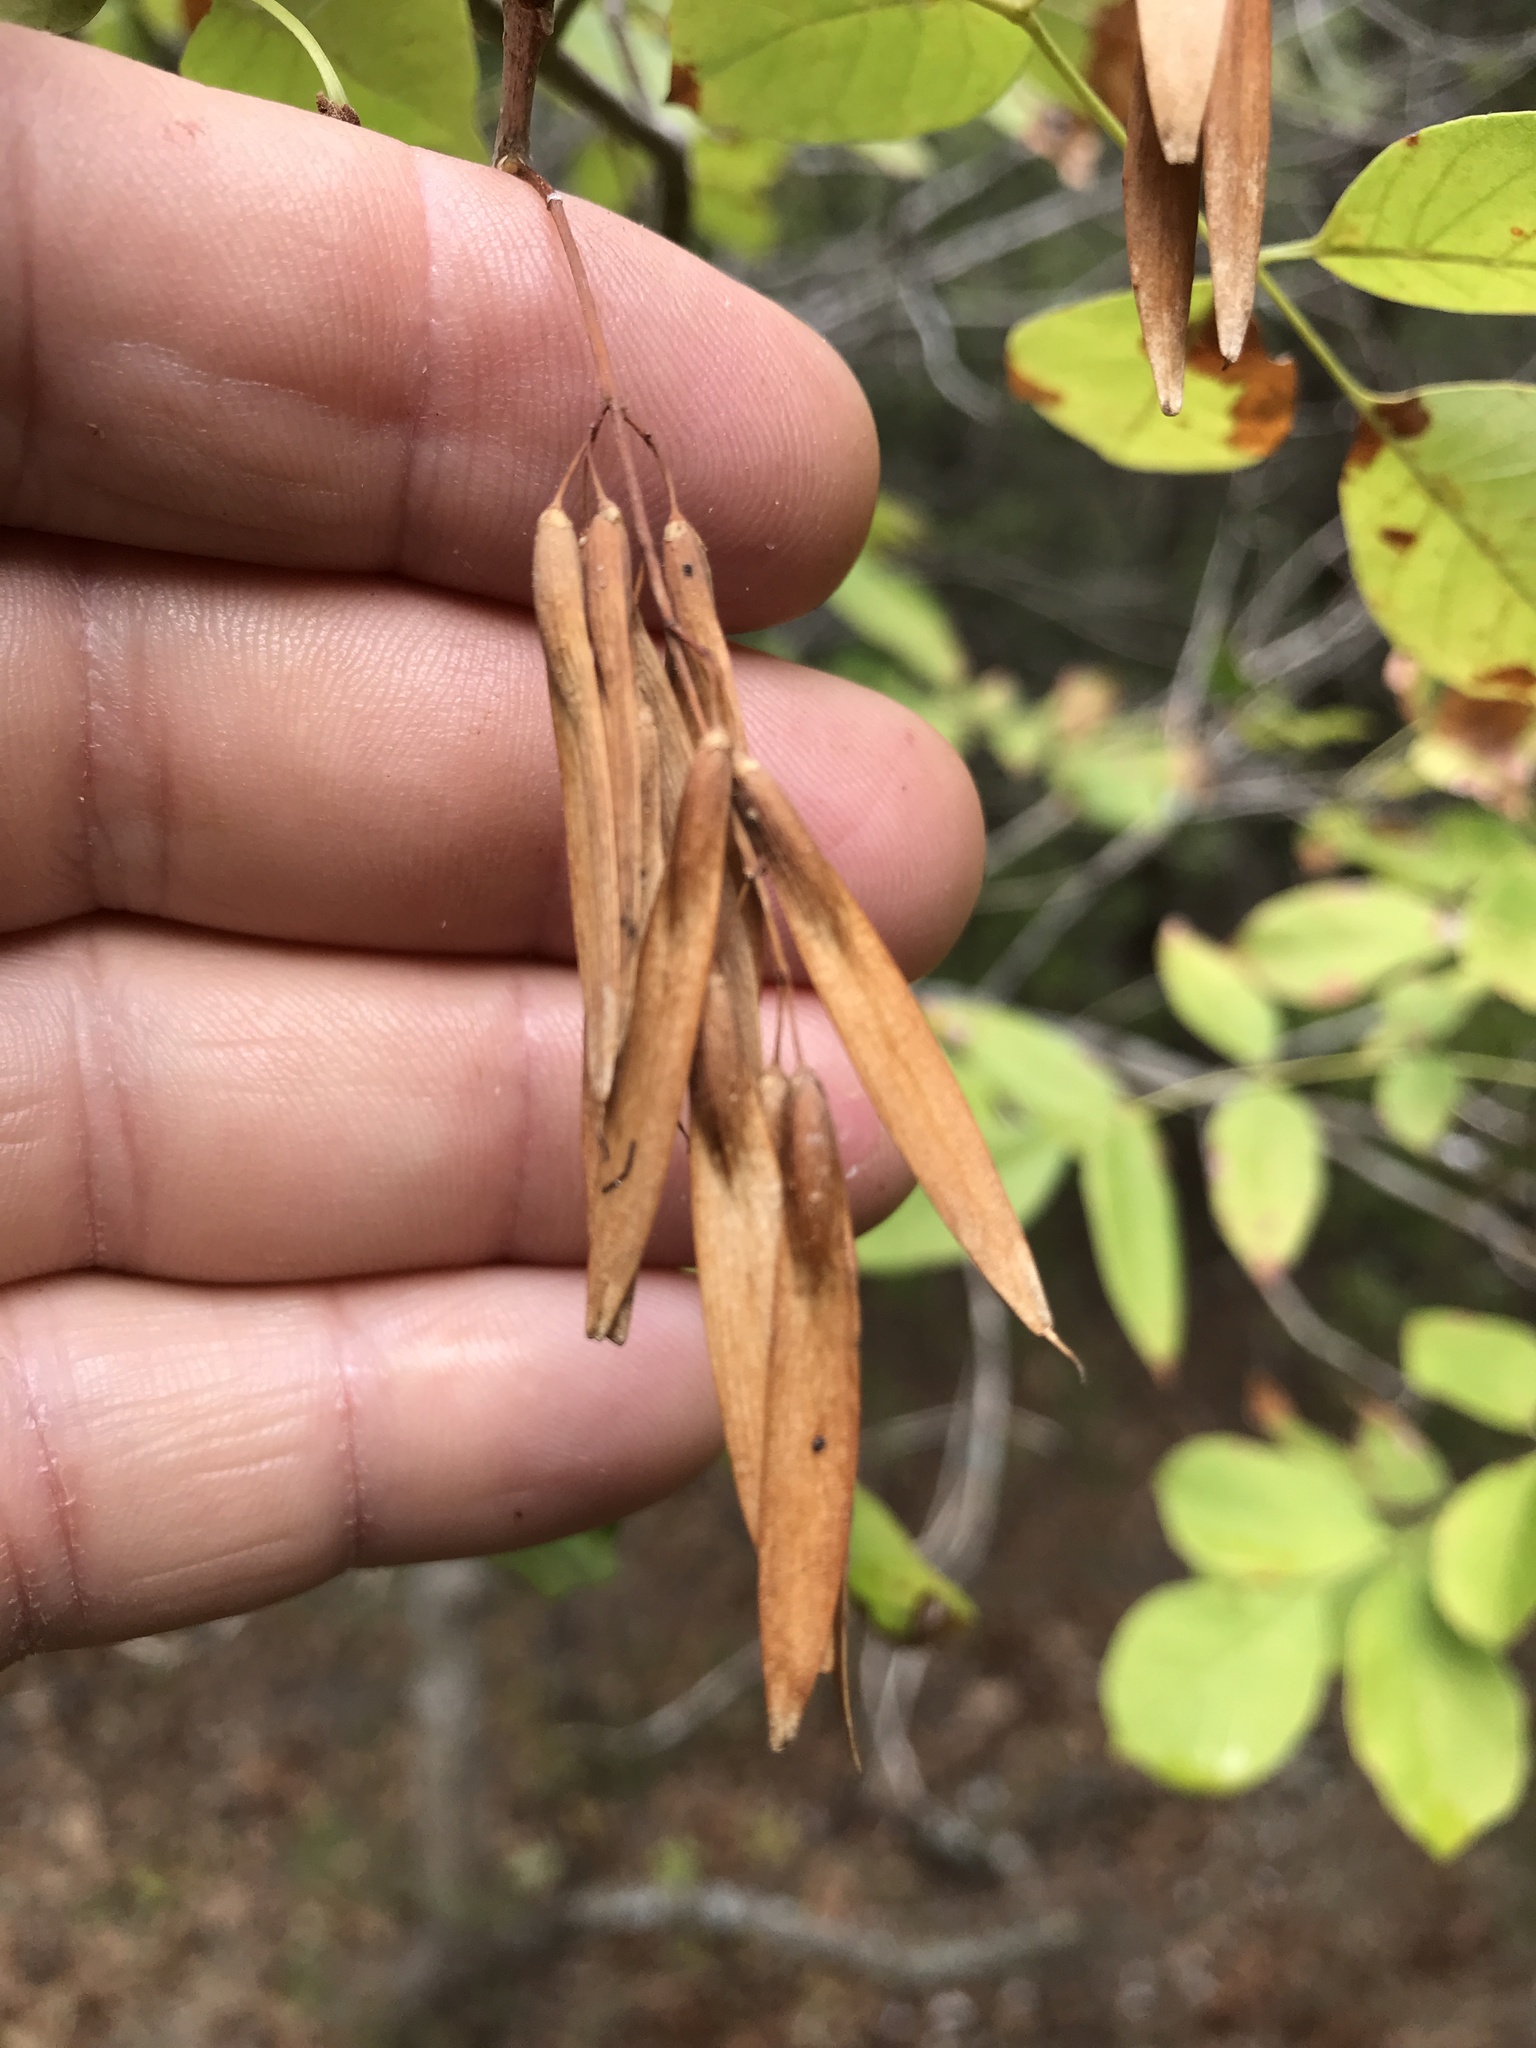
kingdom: Plantae
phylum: Tracheophyta
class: Magnoliopsida
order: Lamiales
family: Oleaceae
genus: Fraxinus
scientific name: Fraxinus albicans
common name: Texas ash
